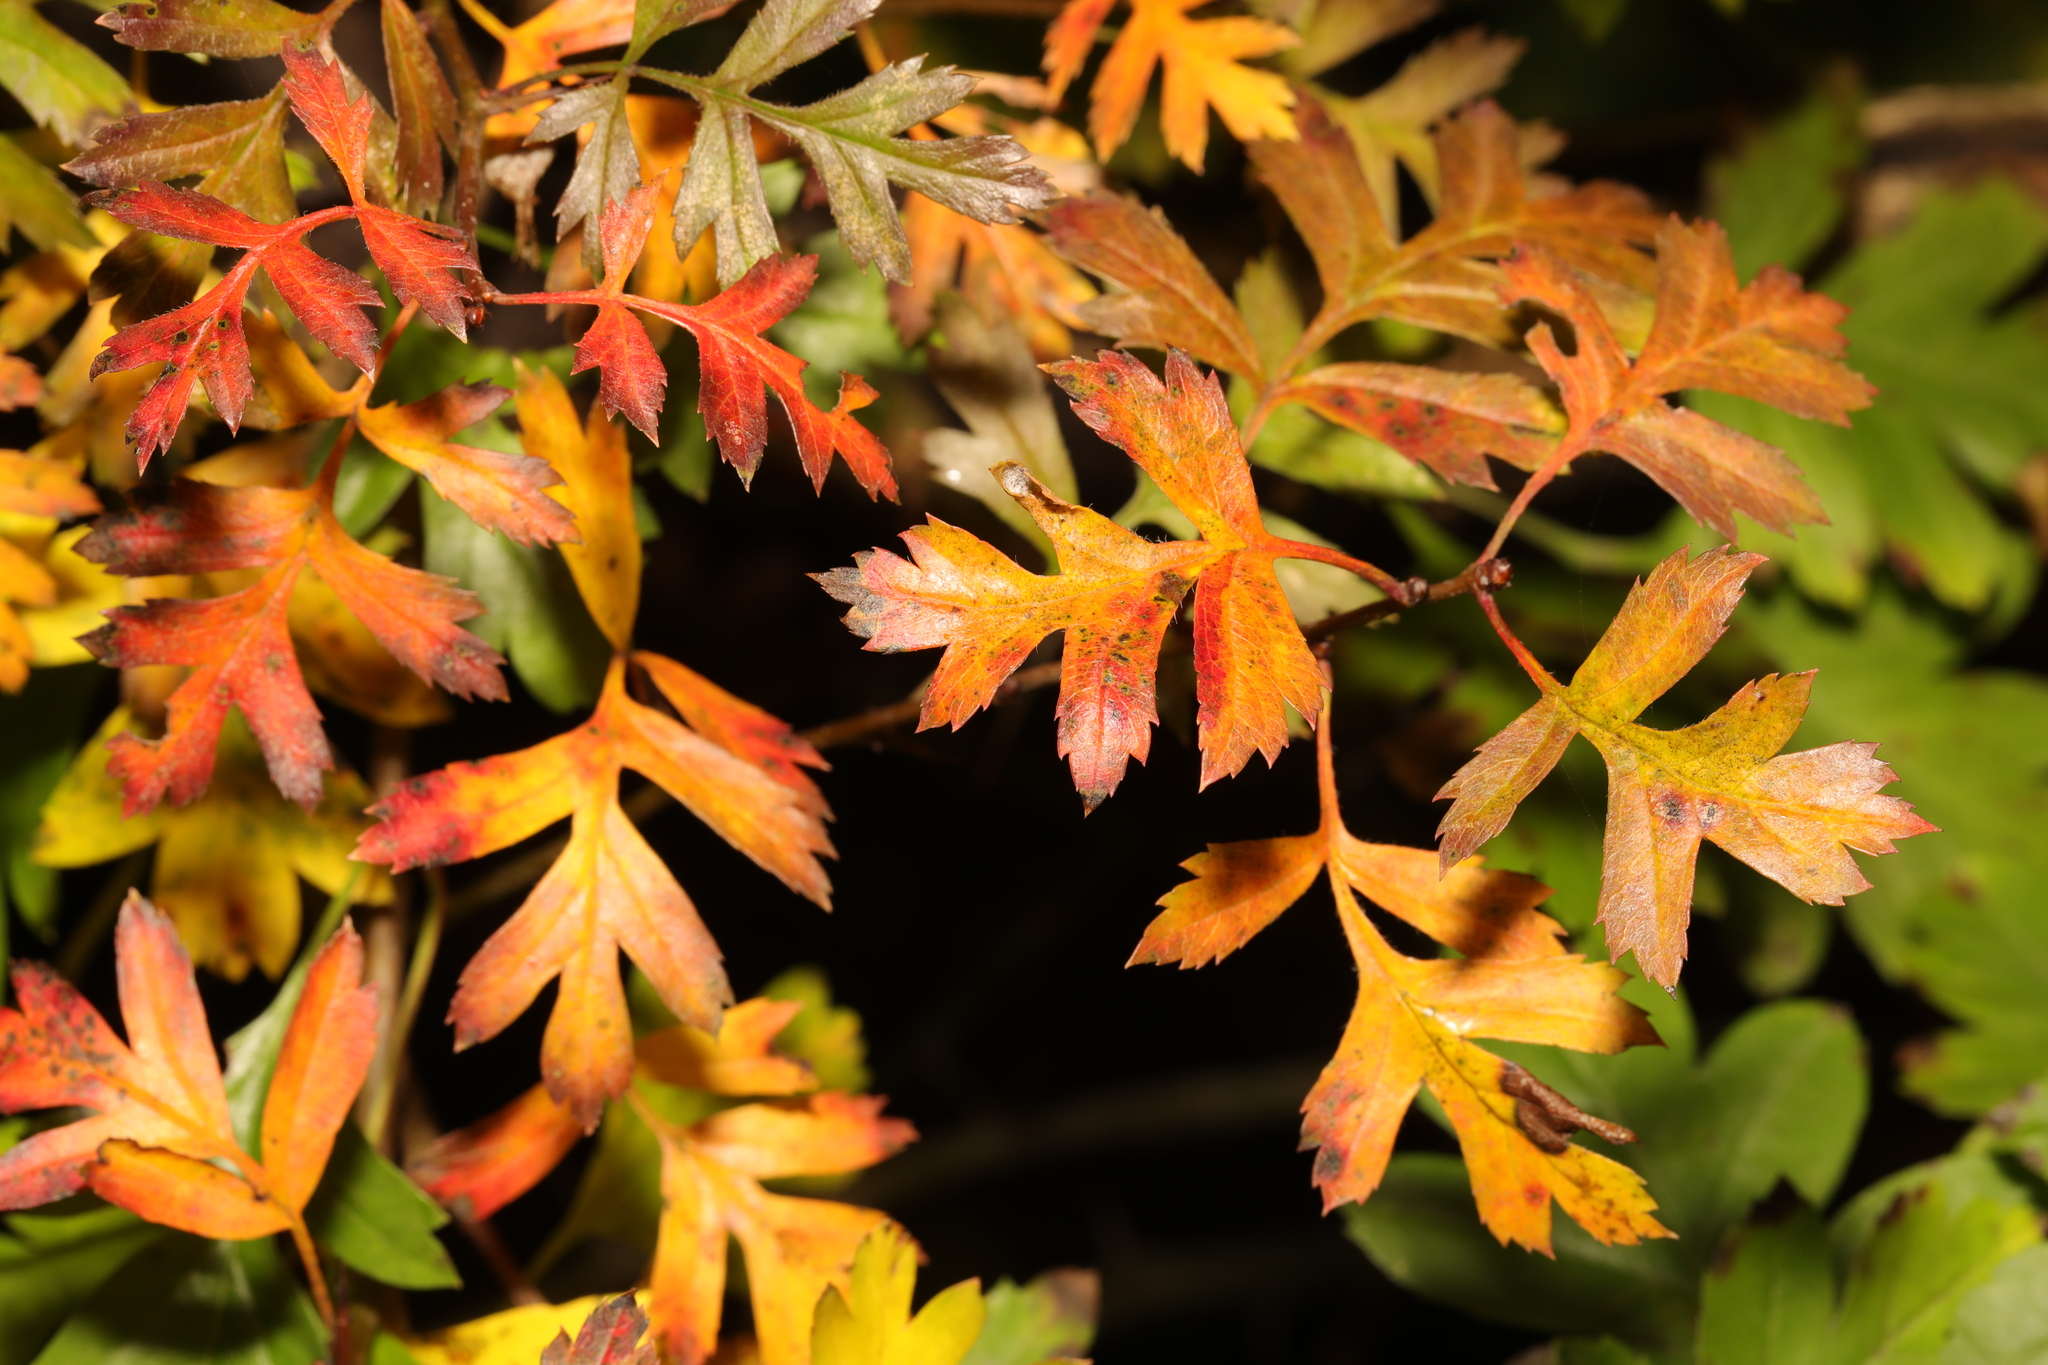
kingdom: Plantae
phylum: Tracheophyta
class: Magnoliopsida
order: Rosales
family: Rosaceae
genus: Crataegus
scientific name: Crataegus monogyna
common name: Hawthorn
